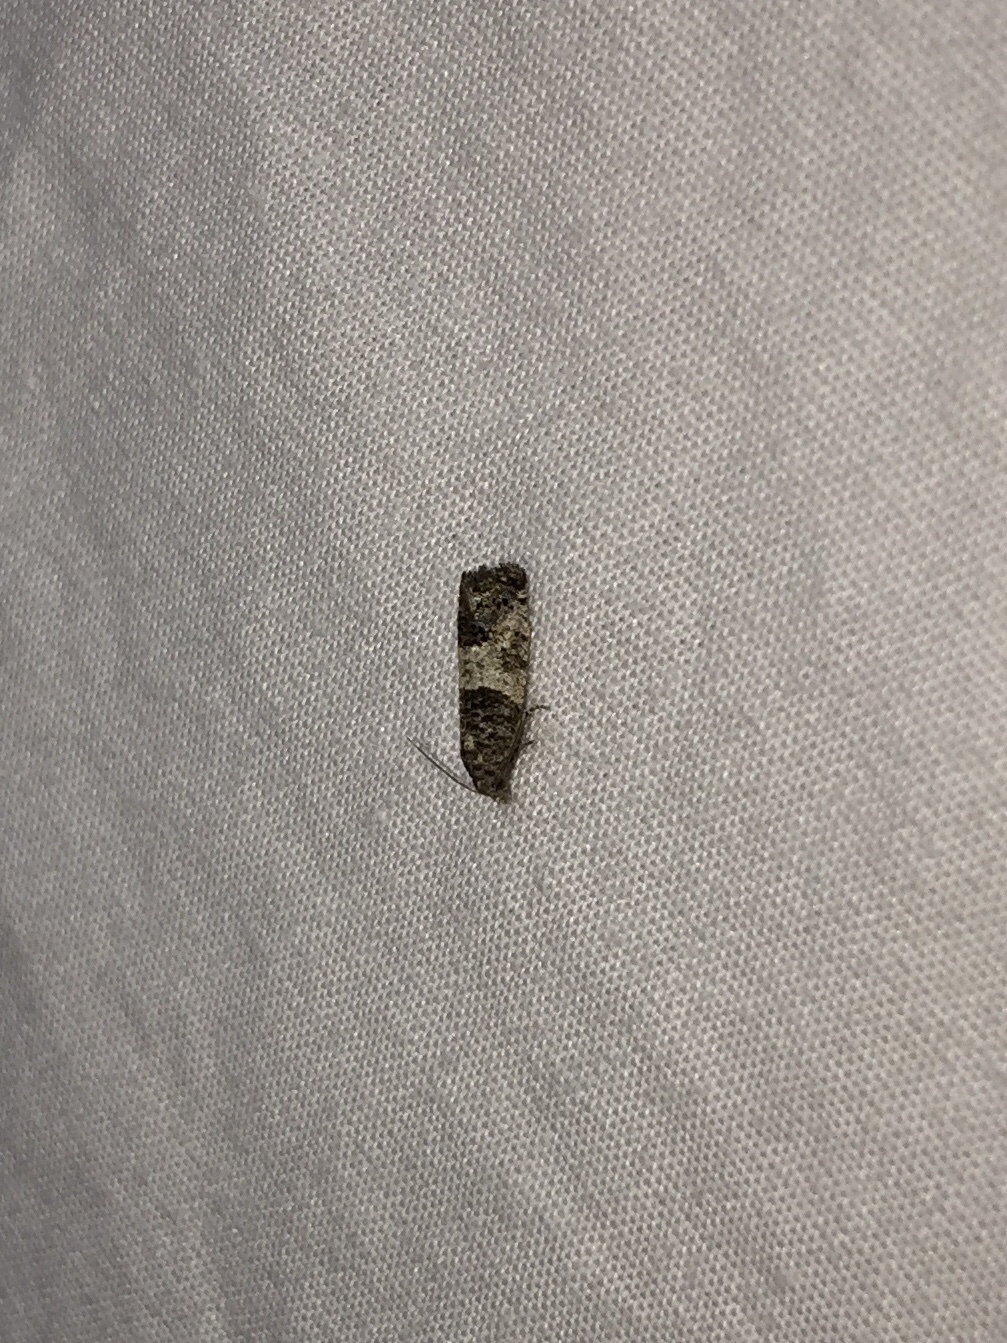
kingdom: Animalia
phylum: Arthropoda
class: Insecta
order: Lepidoptera
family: Tortricidae
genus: Spilonota
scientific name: Spilonota ocellana
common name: Bud moth
